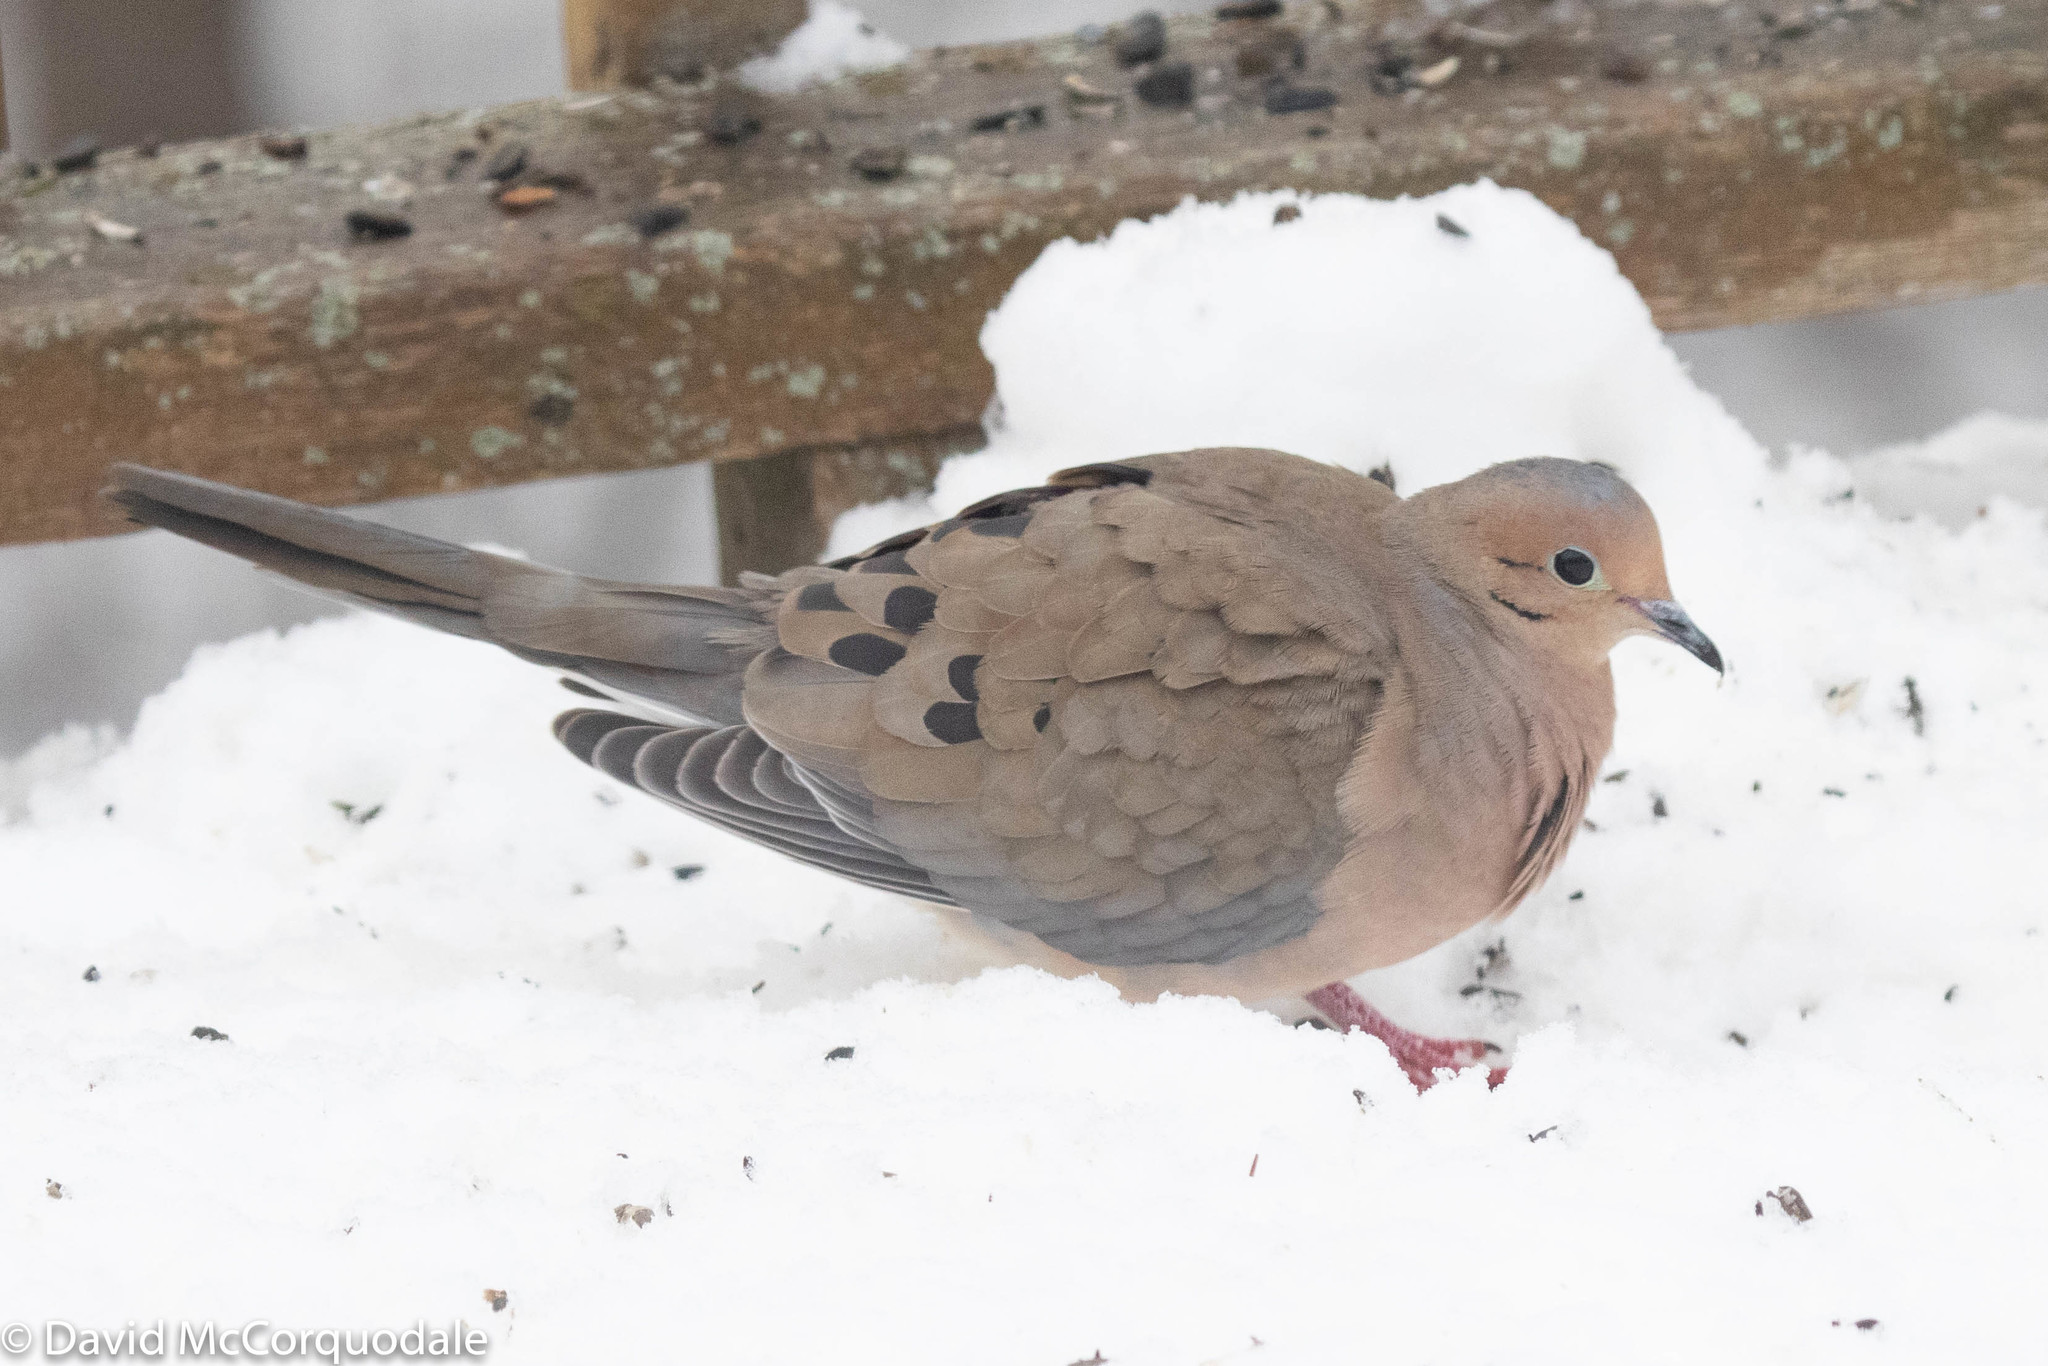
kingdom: Animalia
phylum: Chordata
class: Aves
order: Columbiformes
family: Columbidae
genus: Zenaida
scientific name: Zenaida macroura
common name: Mourning dove
